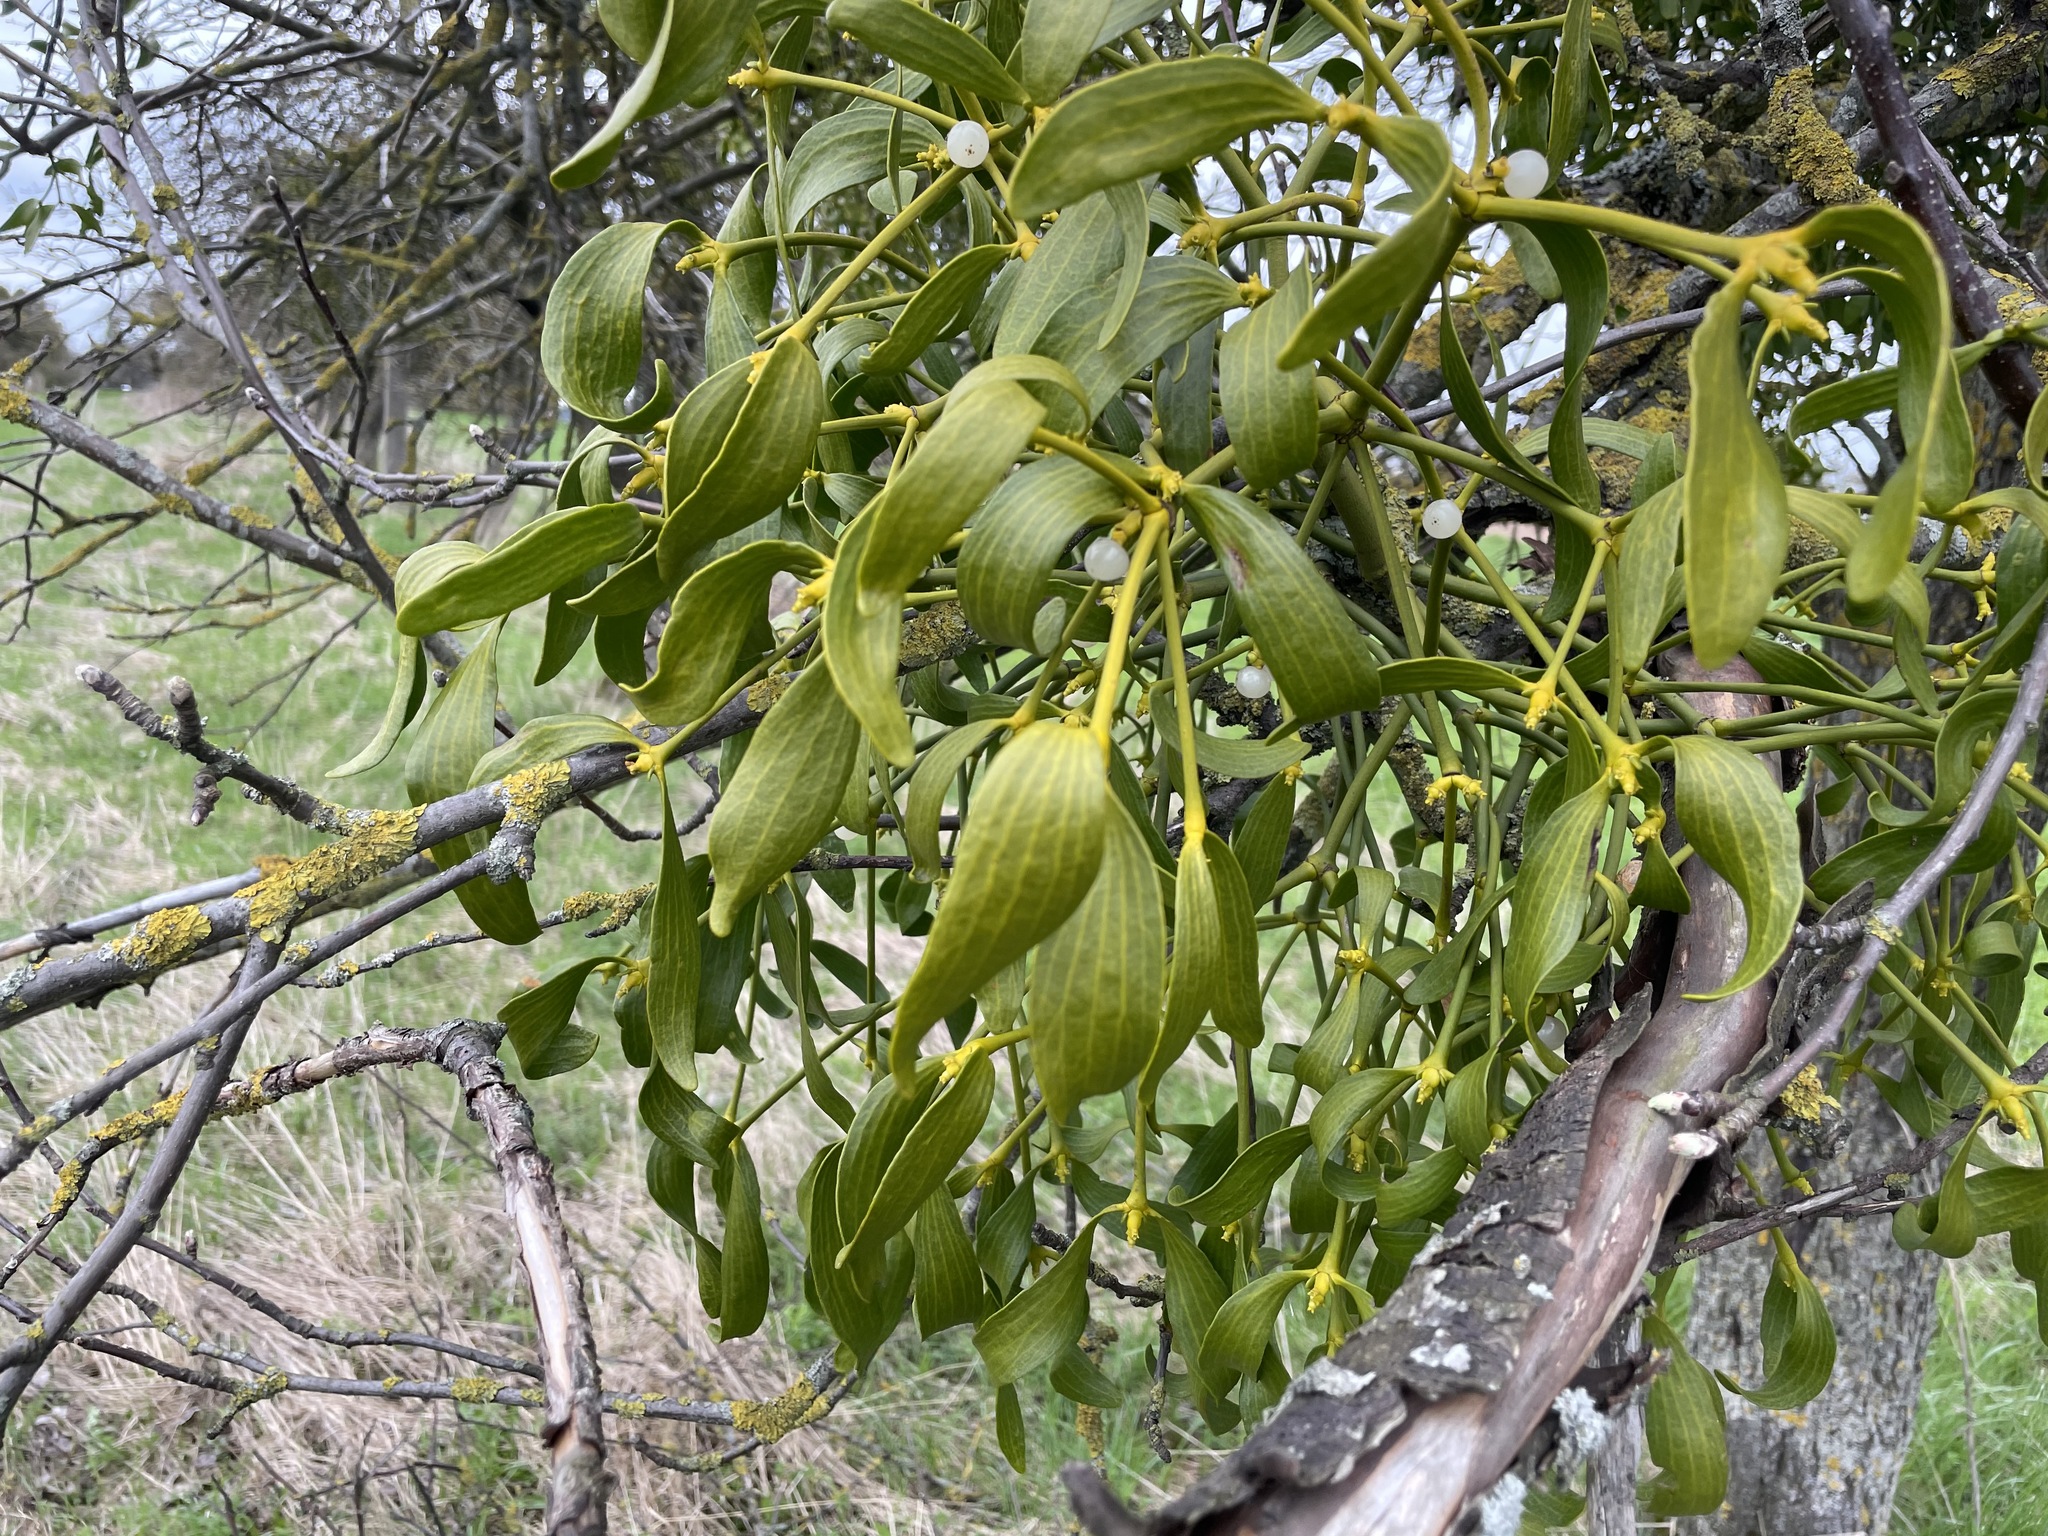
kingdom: Plantae
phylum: Tracheophyta
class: Magnoliopsida
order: Santalales
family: Viscaceae
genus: Viscum
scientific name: Viscum album
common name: Mistletoe
